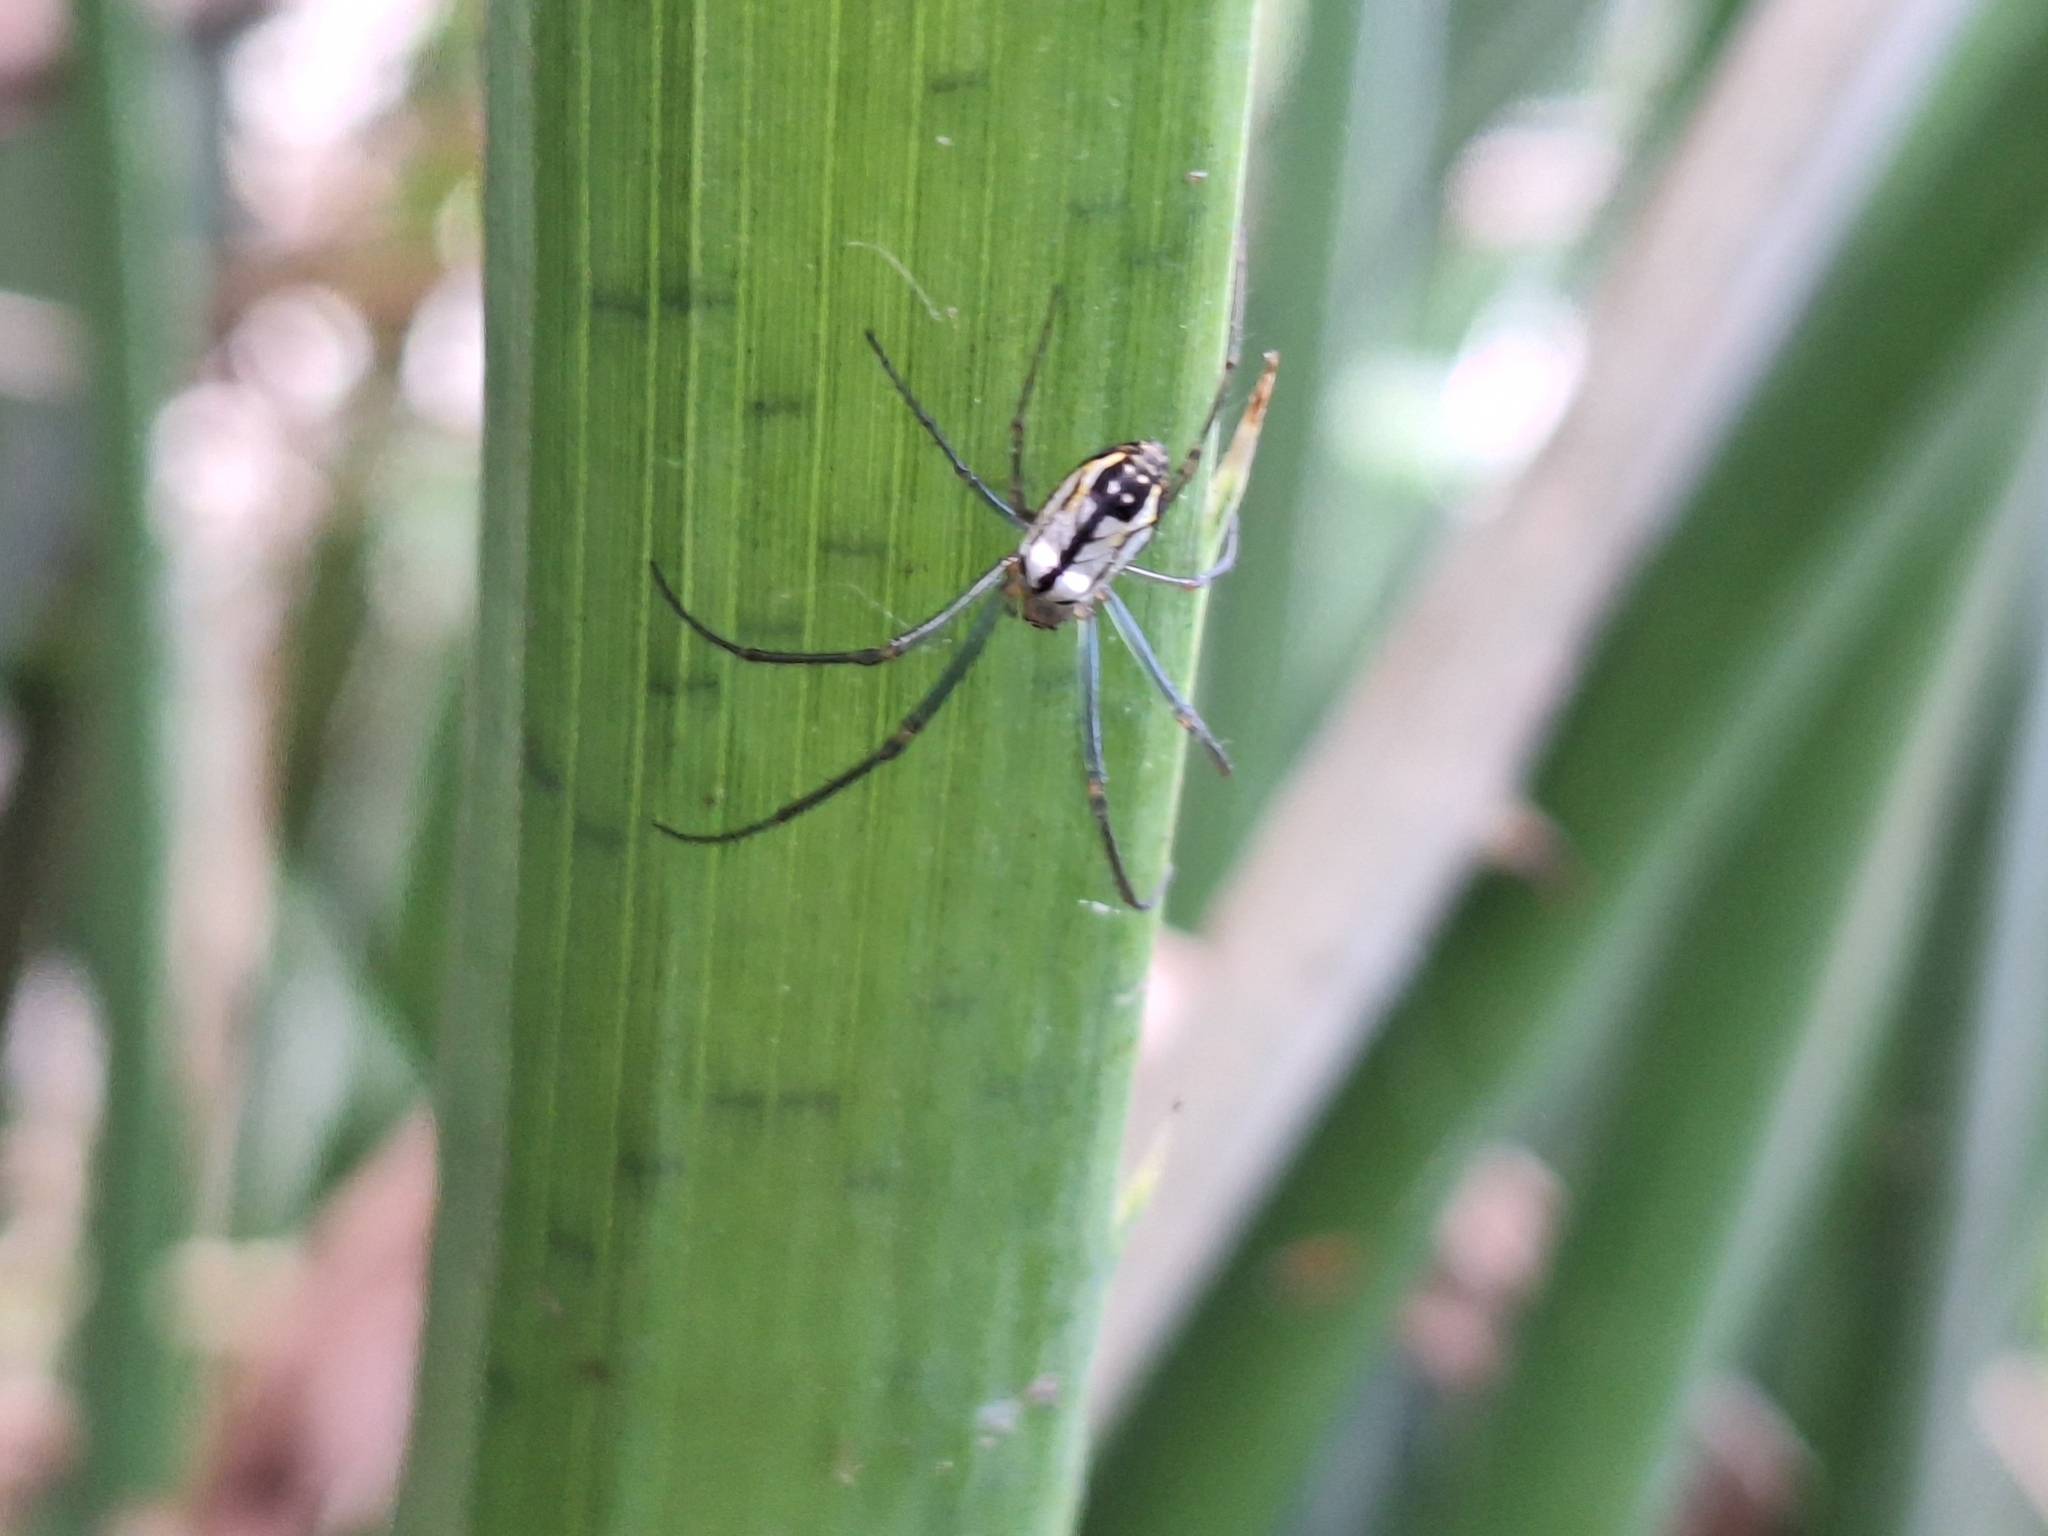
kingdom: Animalia
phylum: Arthropoda
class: Arachnida
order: Araneae
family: Tetragnathidae
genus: Leucauge
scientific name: Leucauge volupis
